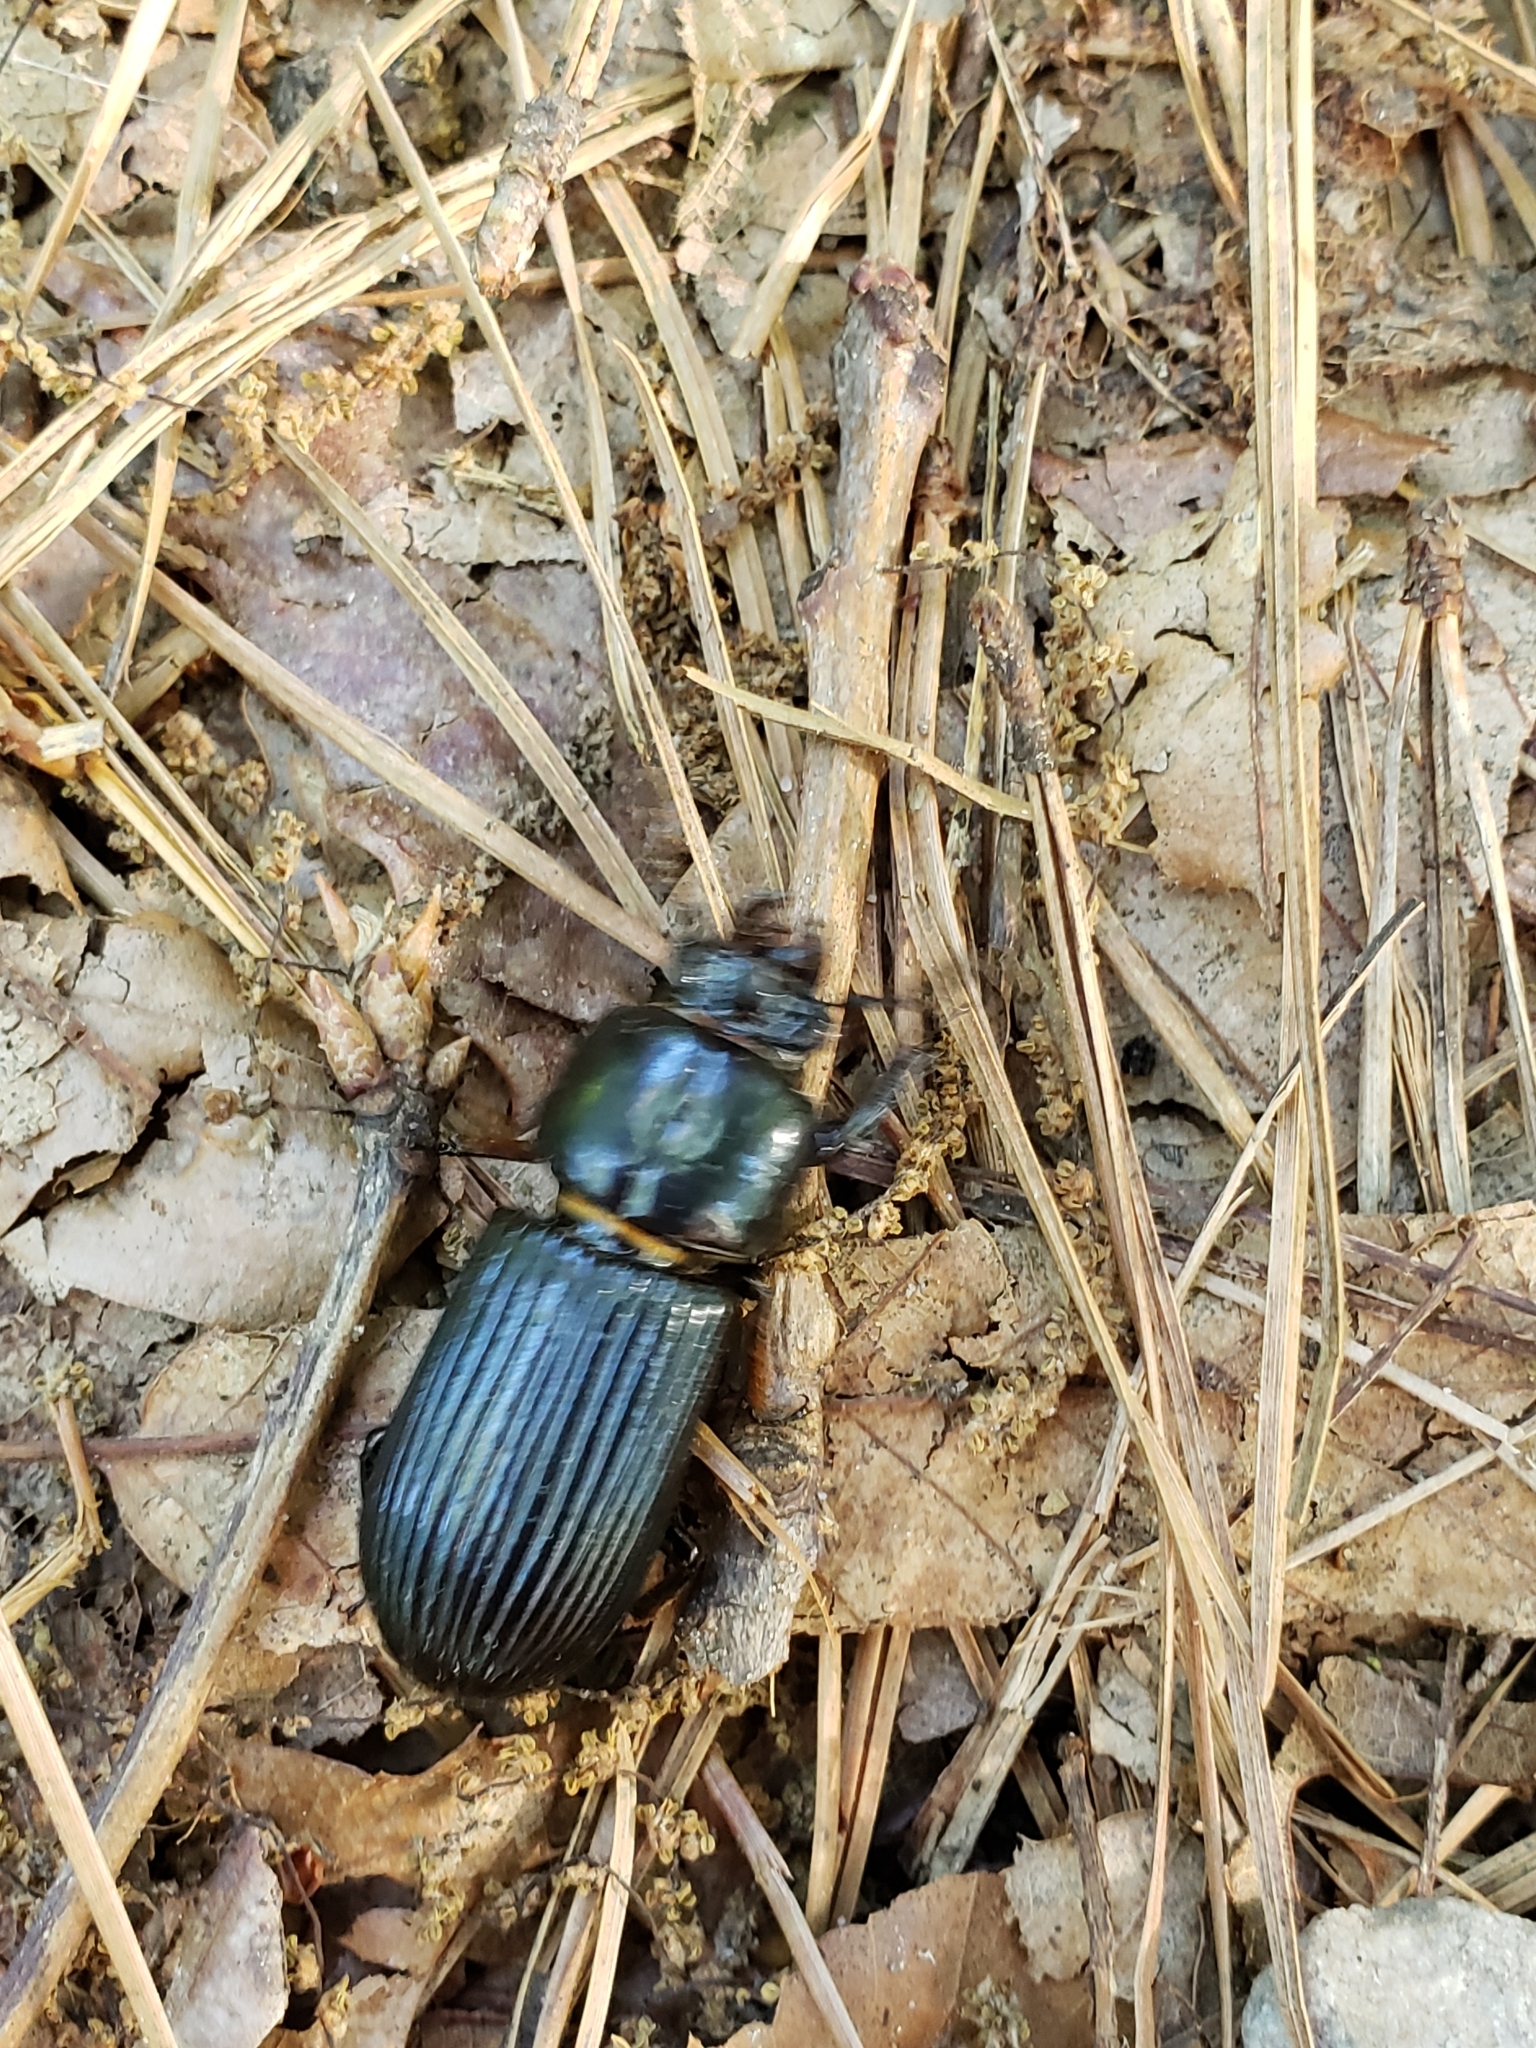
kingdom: Animalia
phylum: Arthropoda
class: Insecta
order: Coleoptera
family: Passalidae
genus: Odontotaenius
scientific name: Odontotaenius disjunctus
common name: Patent leather beetle
